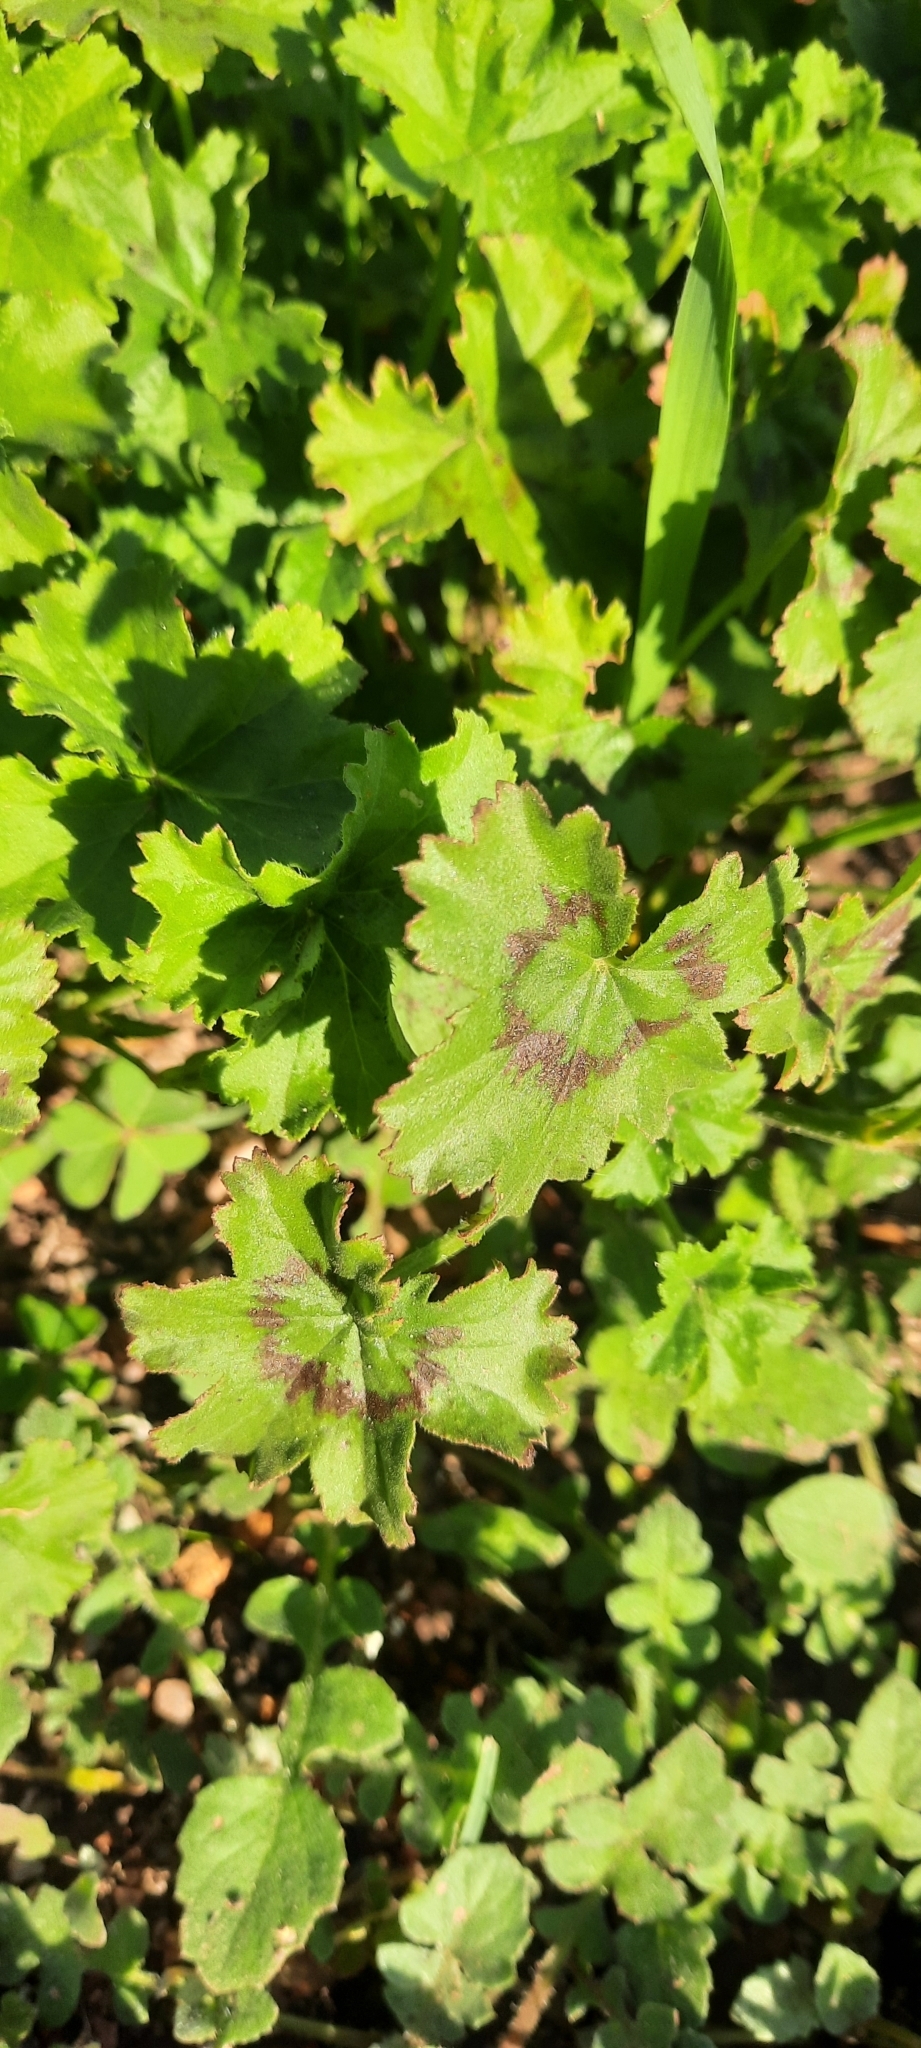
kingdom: Plantae
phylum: Tracheophyta
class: Magnoliopsida
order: Geraniales
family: Geraniaceae
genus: Pelargonium
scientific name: Pelargonium elongatum
